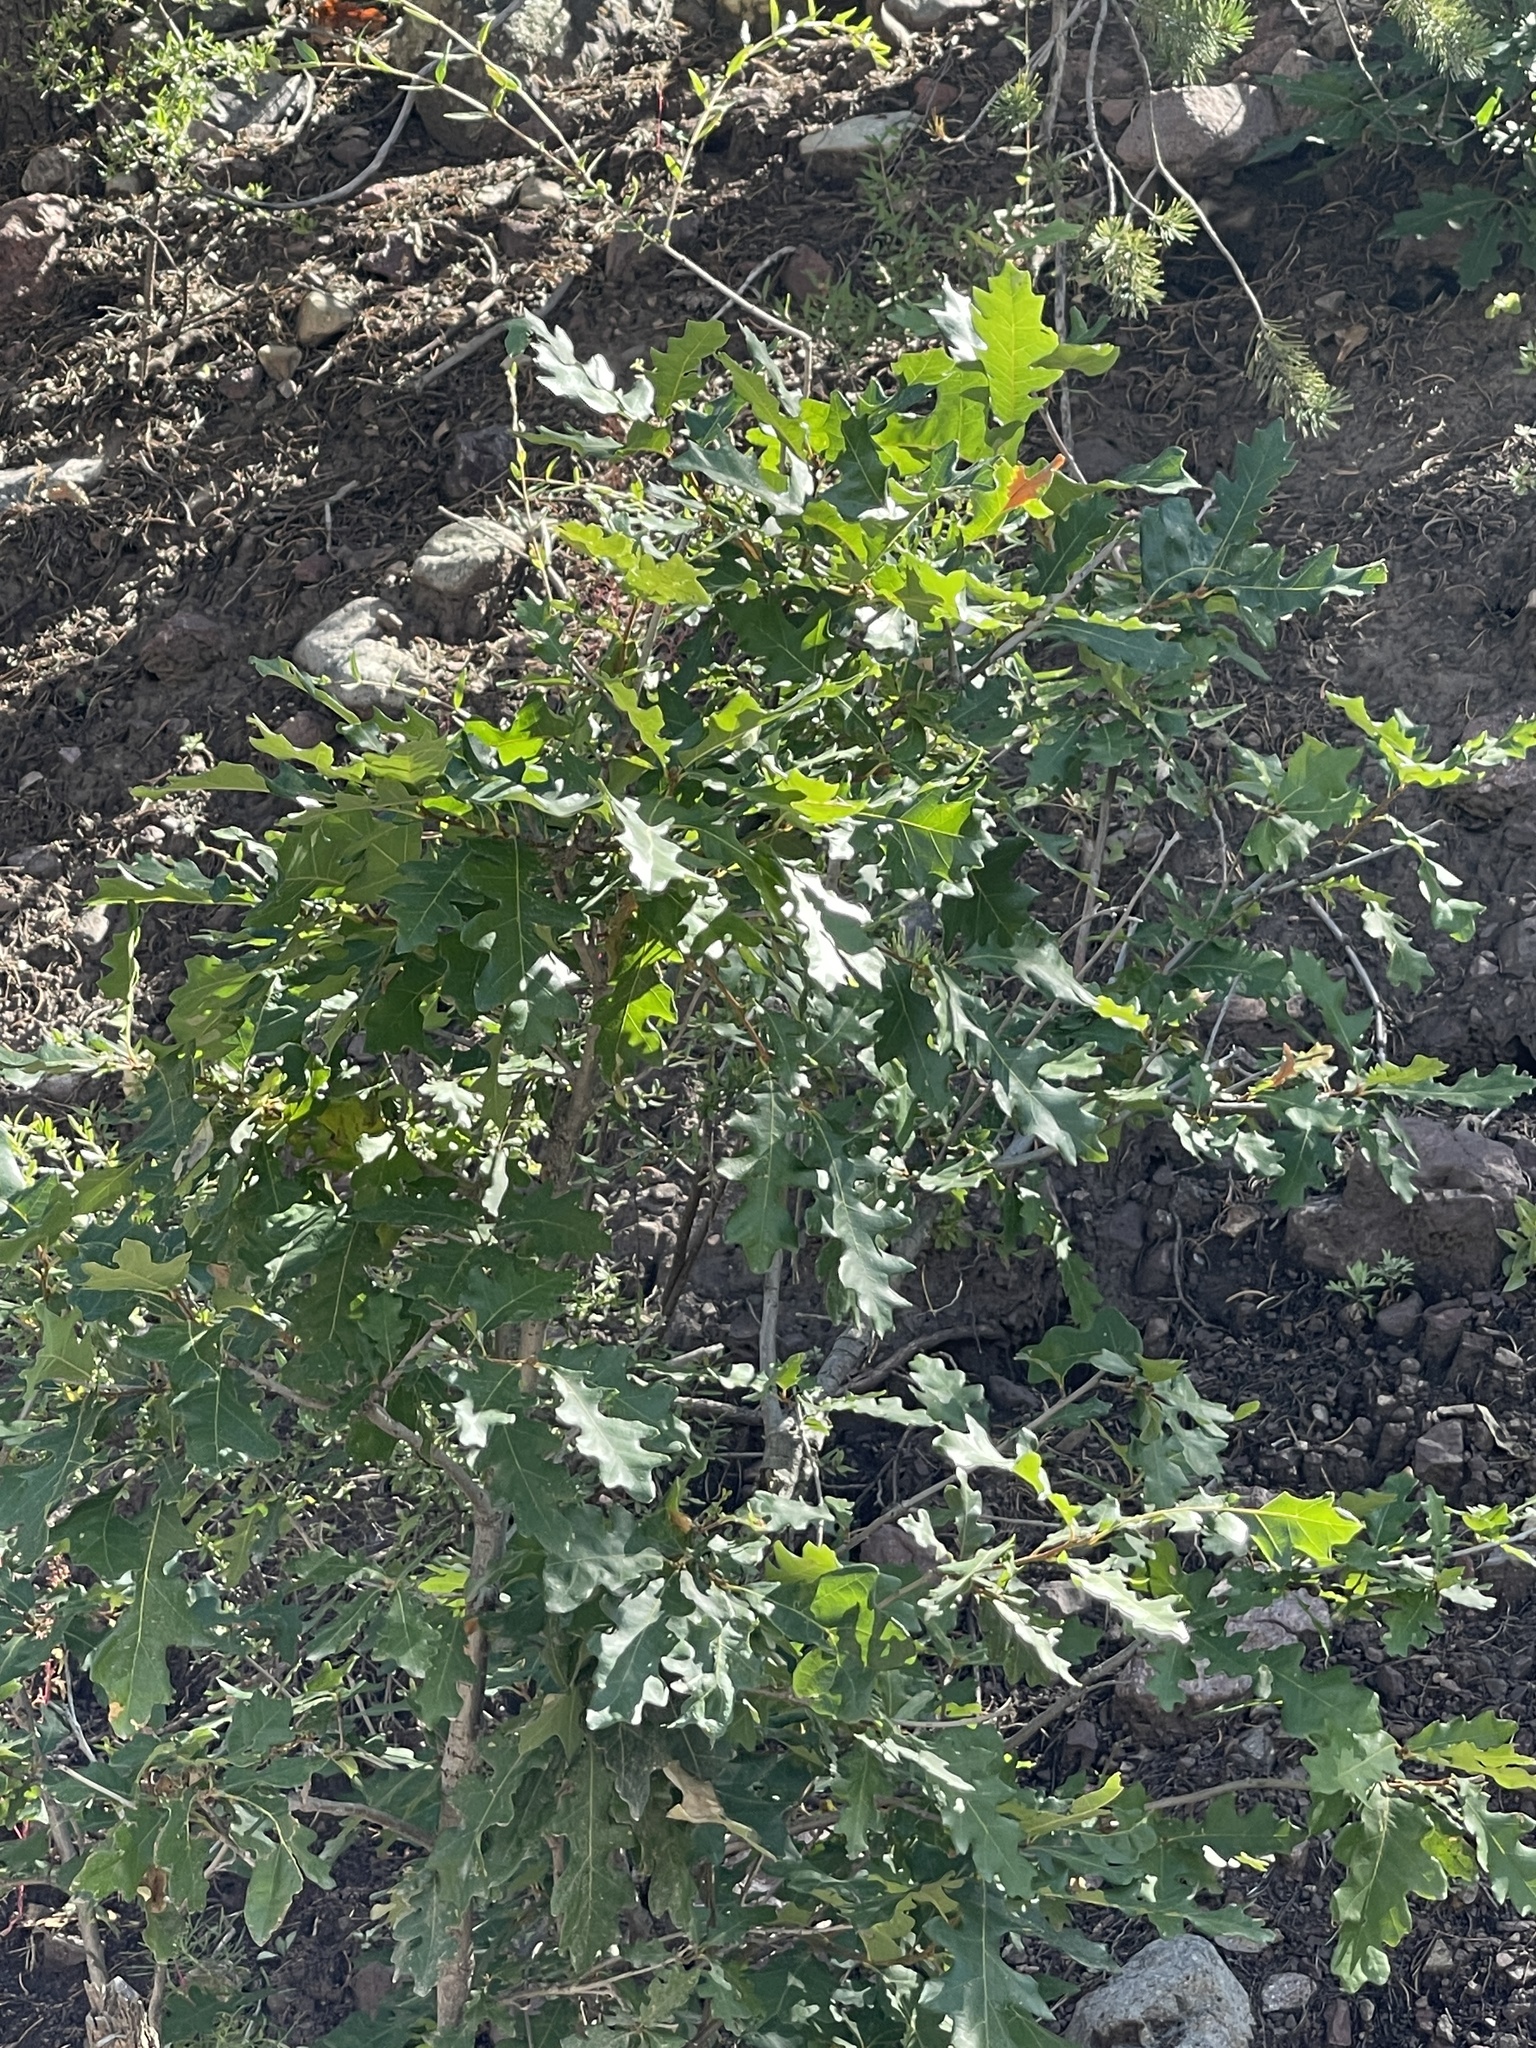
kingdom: Plantae
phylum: Tracheophyta
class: Magnoliopsida
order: Fagales
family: Fagaceae
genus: Quercus
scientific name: Quercus gambelii
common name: Gambel oak
